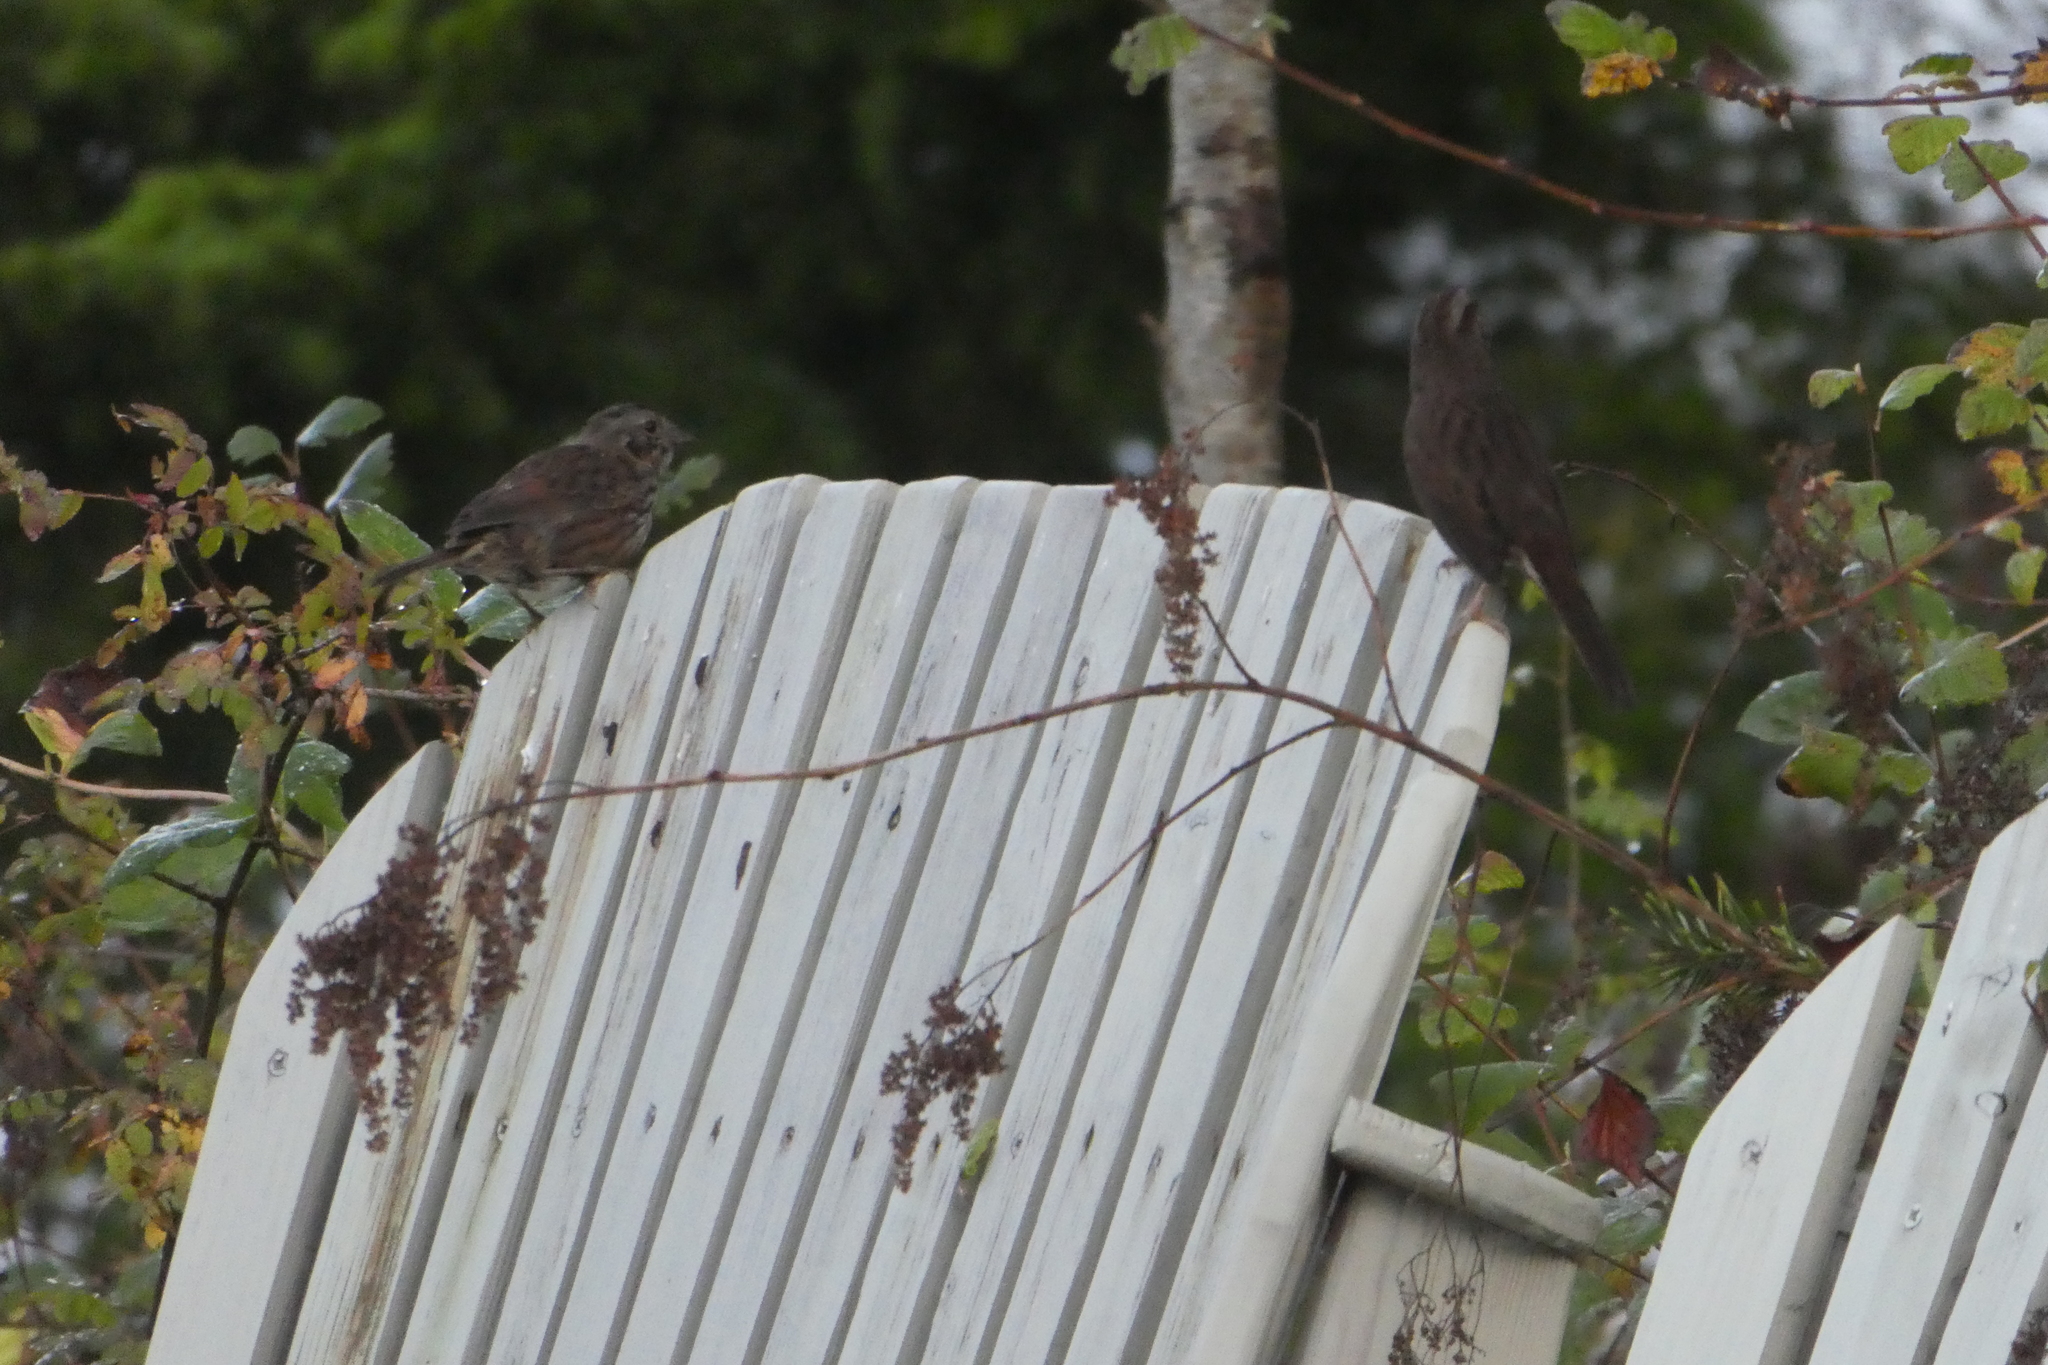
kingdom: Animalia
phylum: Chordata
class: Aves
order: Passeriformes
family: Passerellidae
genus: Melospiza
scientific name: Melospiza melodia
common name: Song sparrow
